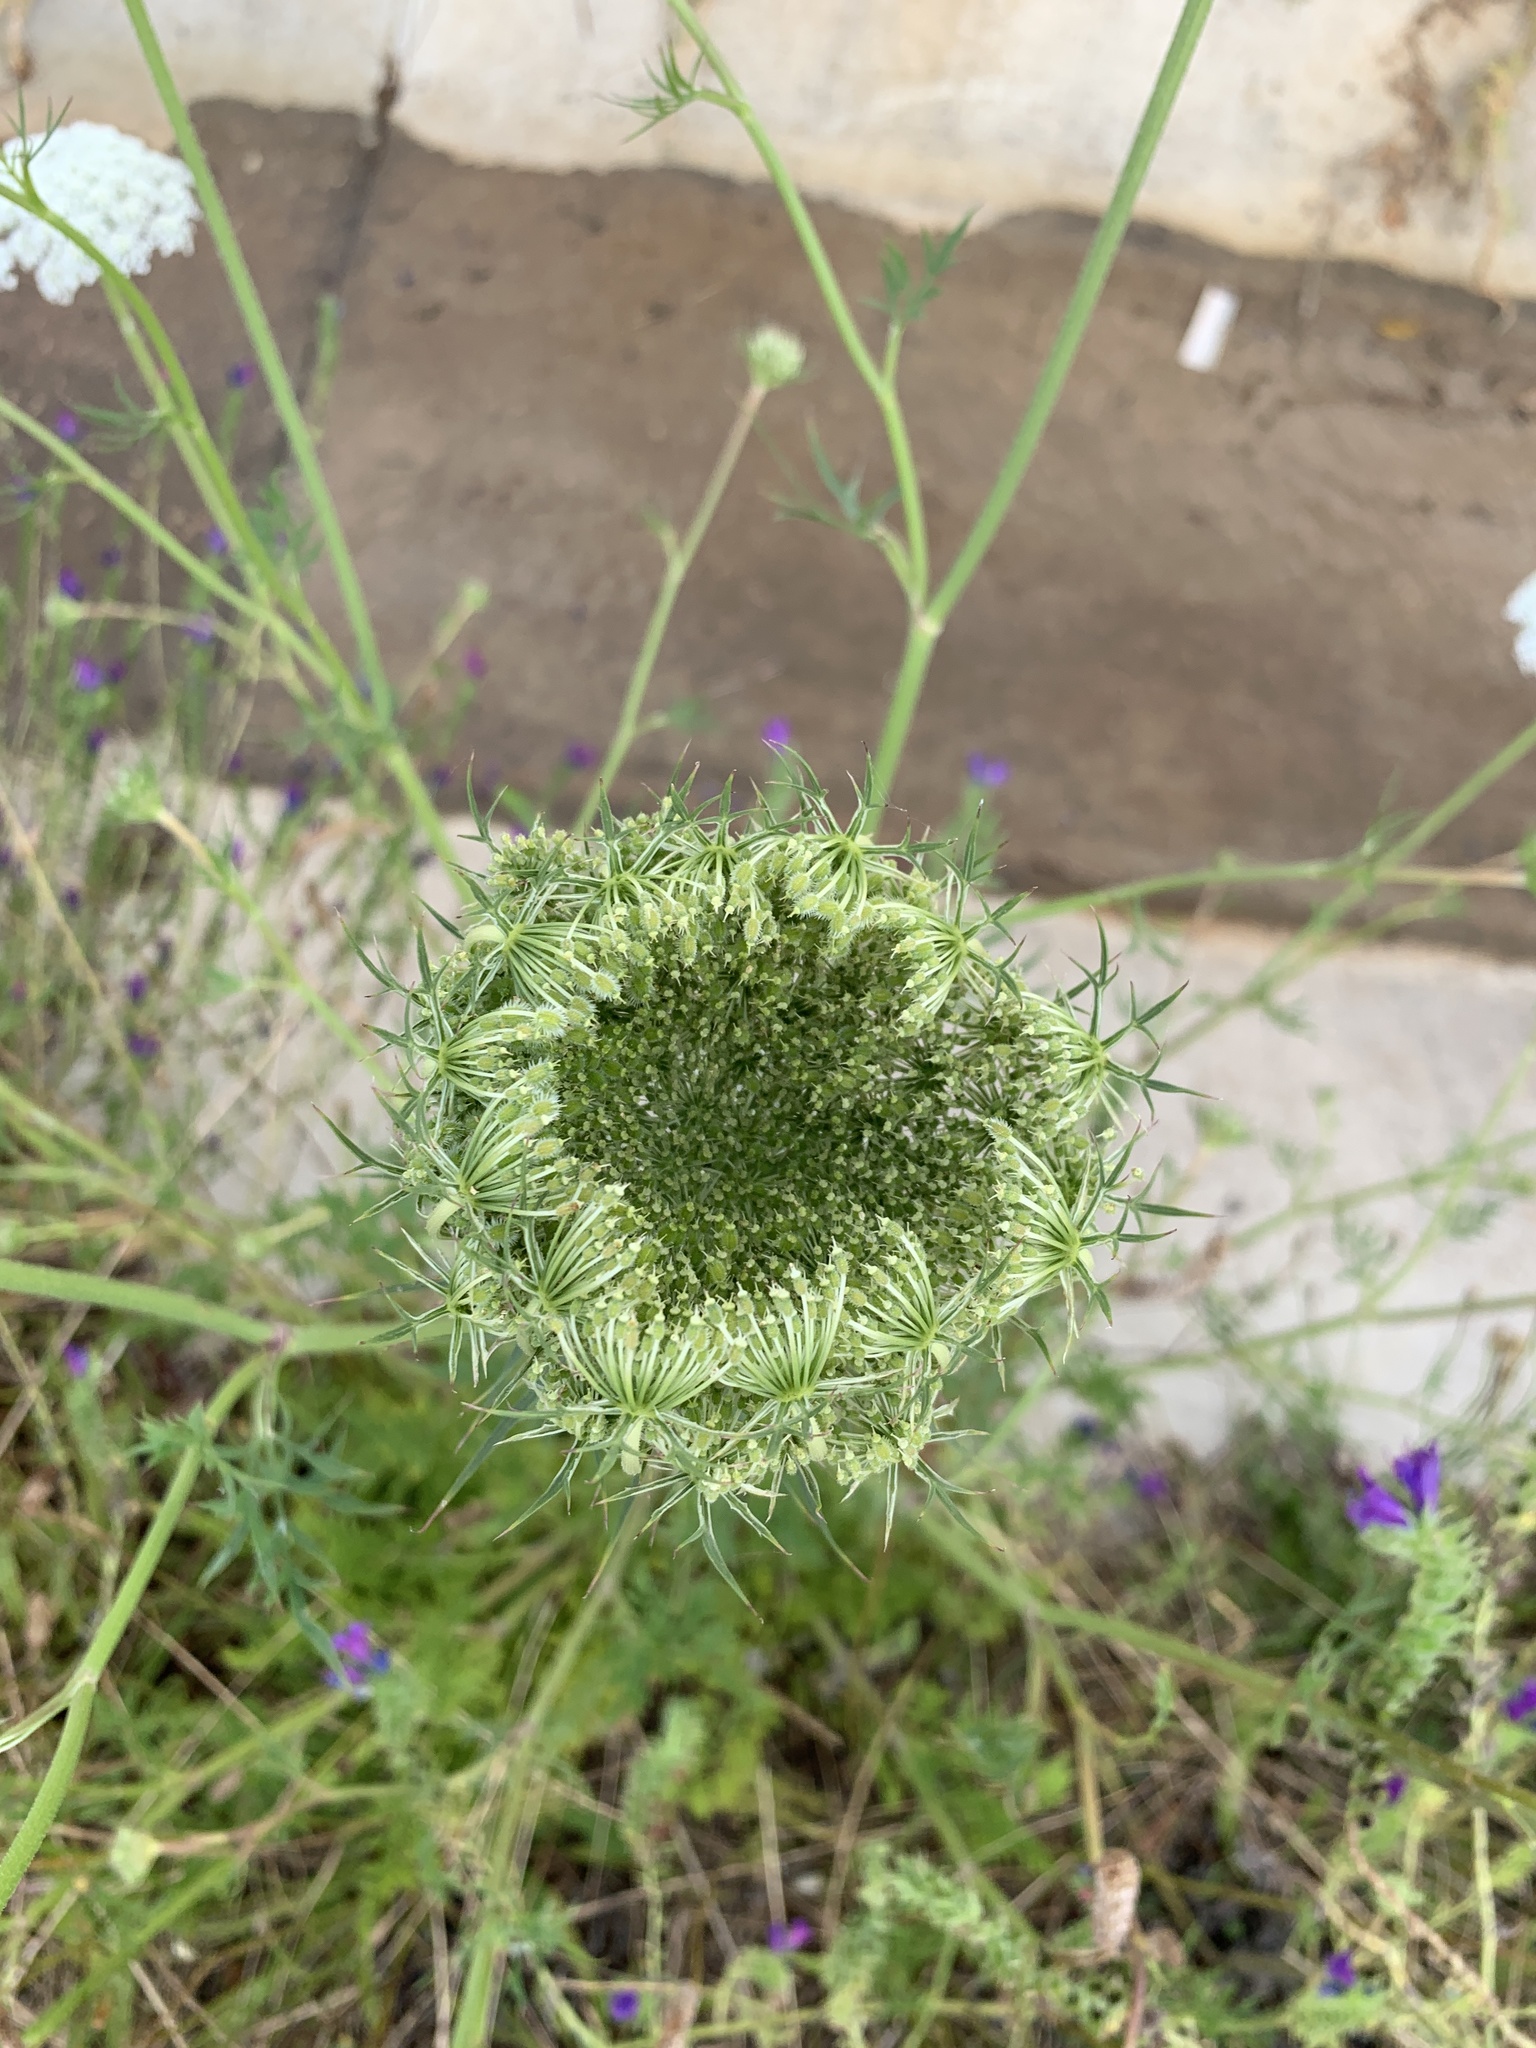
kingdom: Plantae
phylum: Tracheophyta
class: Magnoliopsida
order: Apiales
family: Apiaceae
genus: Daucus
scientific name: Daucus carota
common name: Wild carrot
